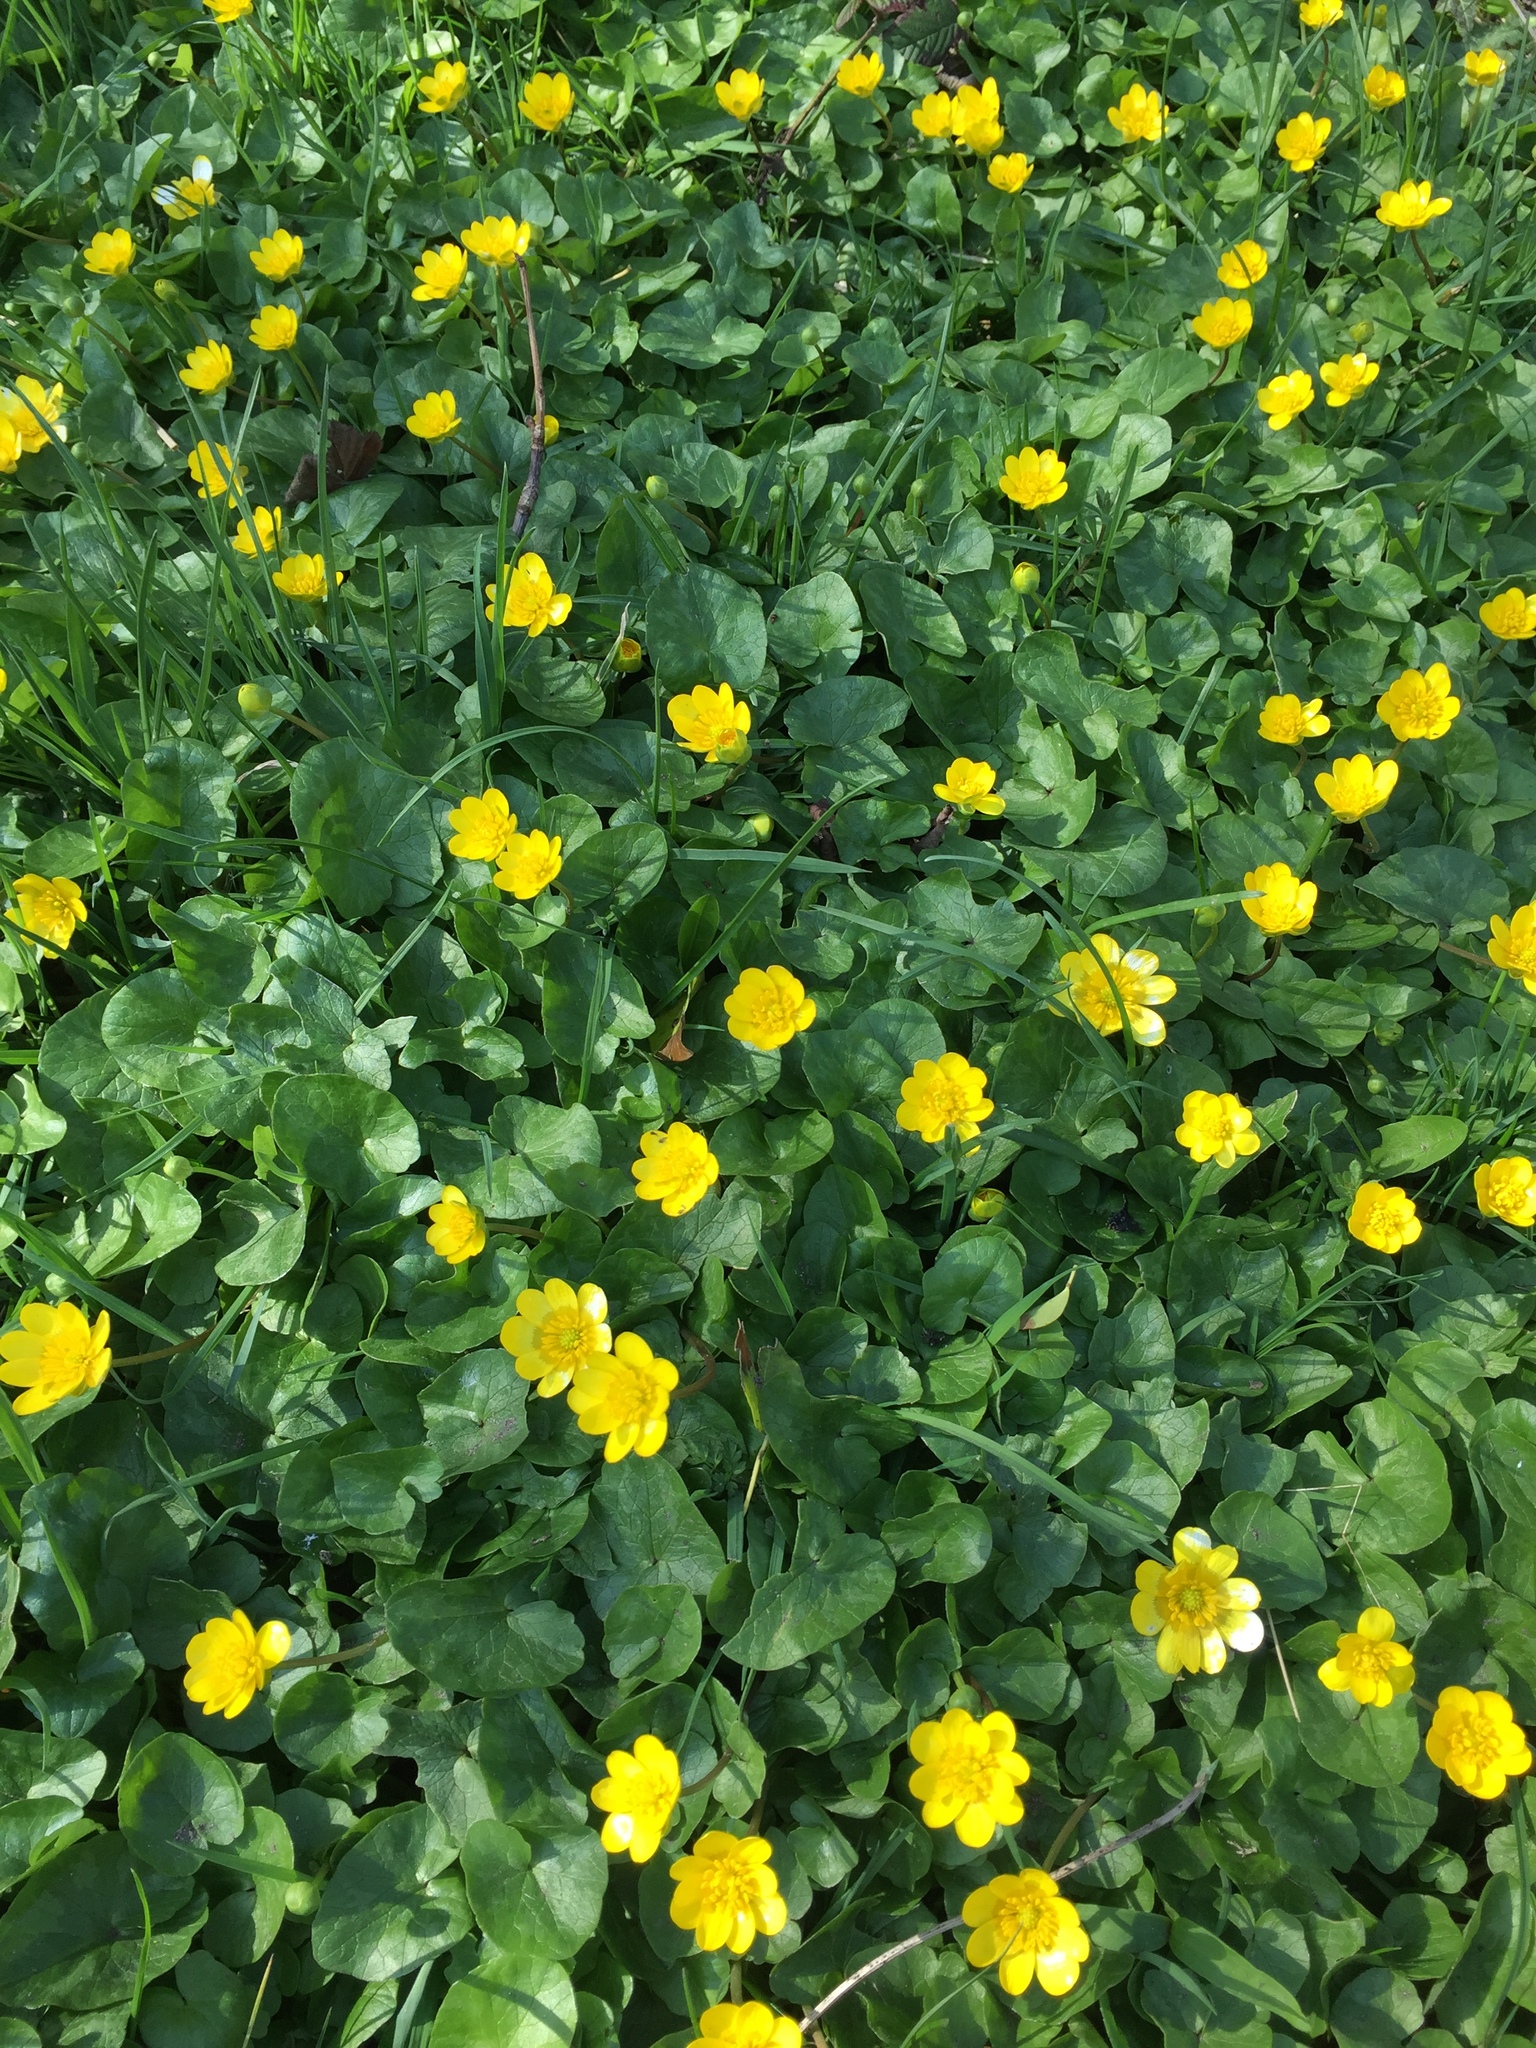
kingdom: Plantae
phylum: Tracheophyta
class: Magnoliopsida
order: Ranunculales
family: Ranunculaceae
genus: Ficaria
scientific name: Ficaria verna
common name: Lesser celandine
